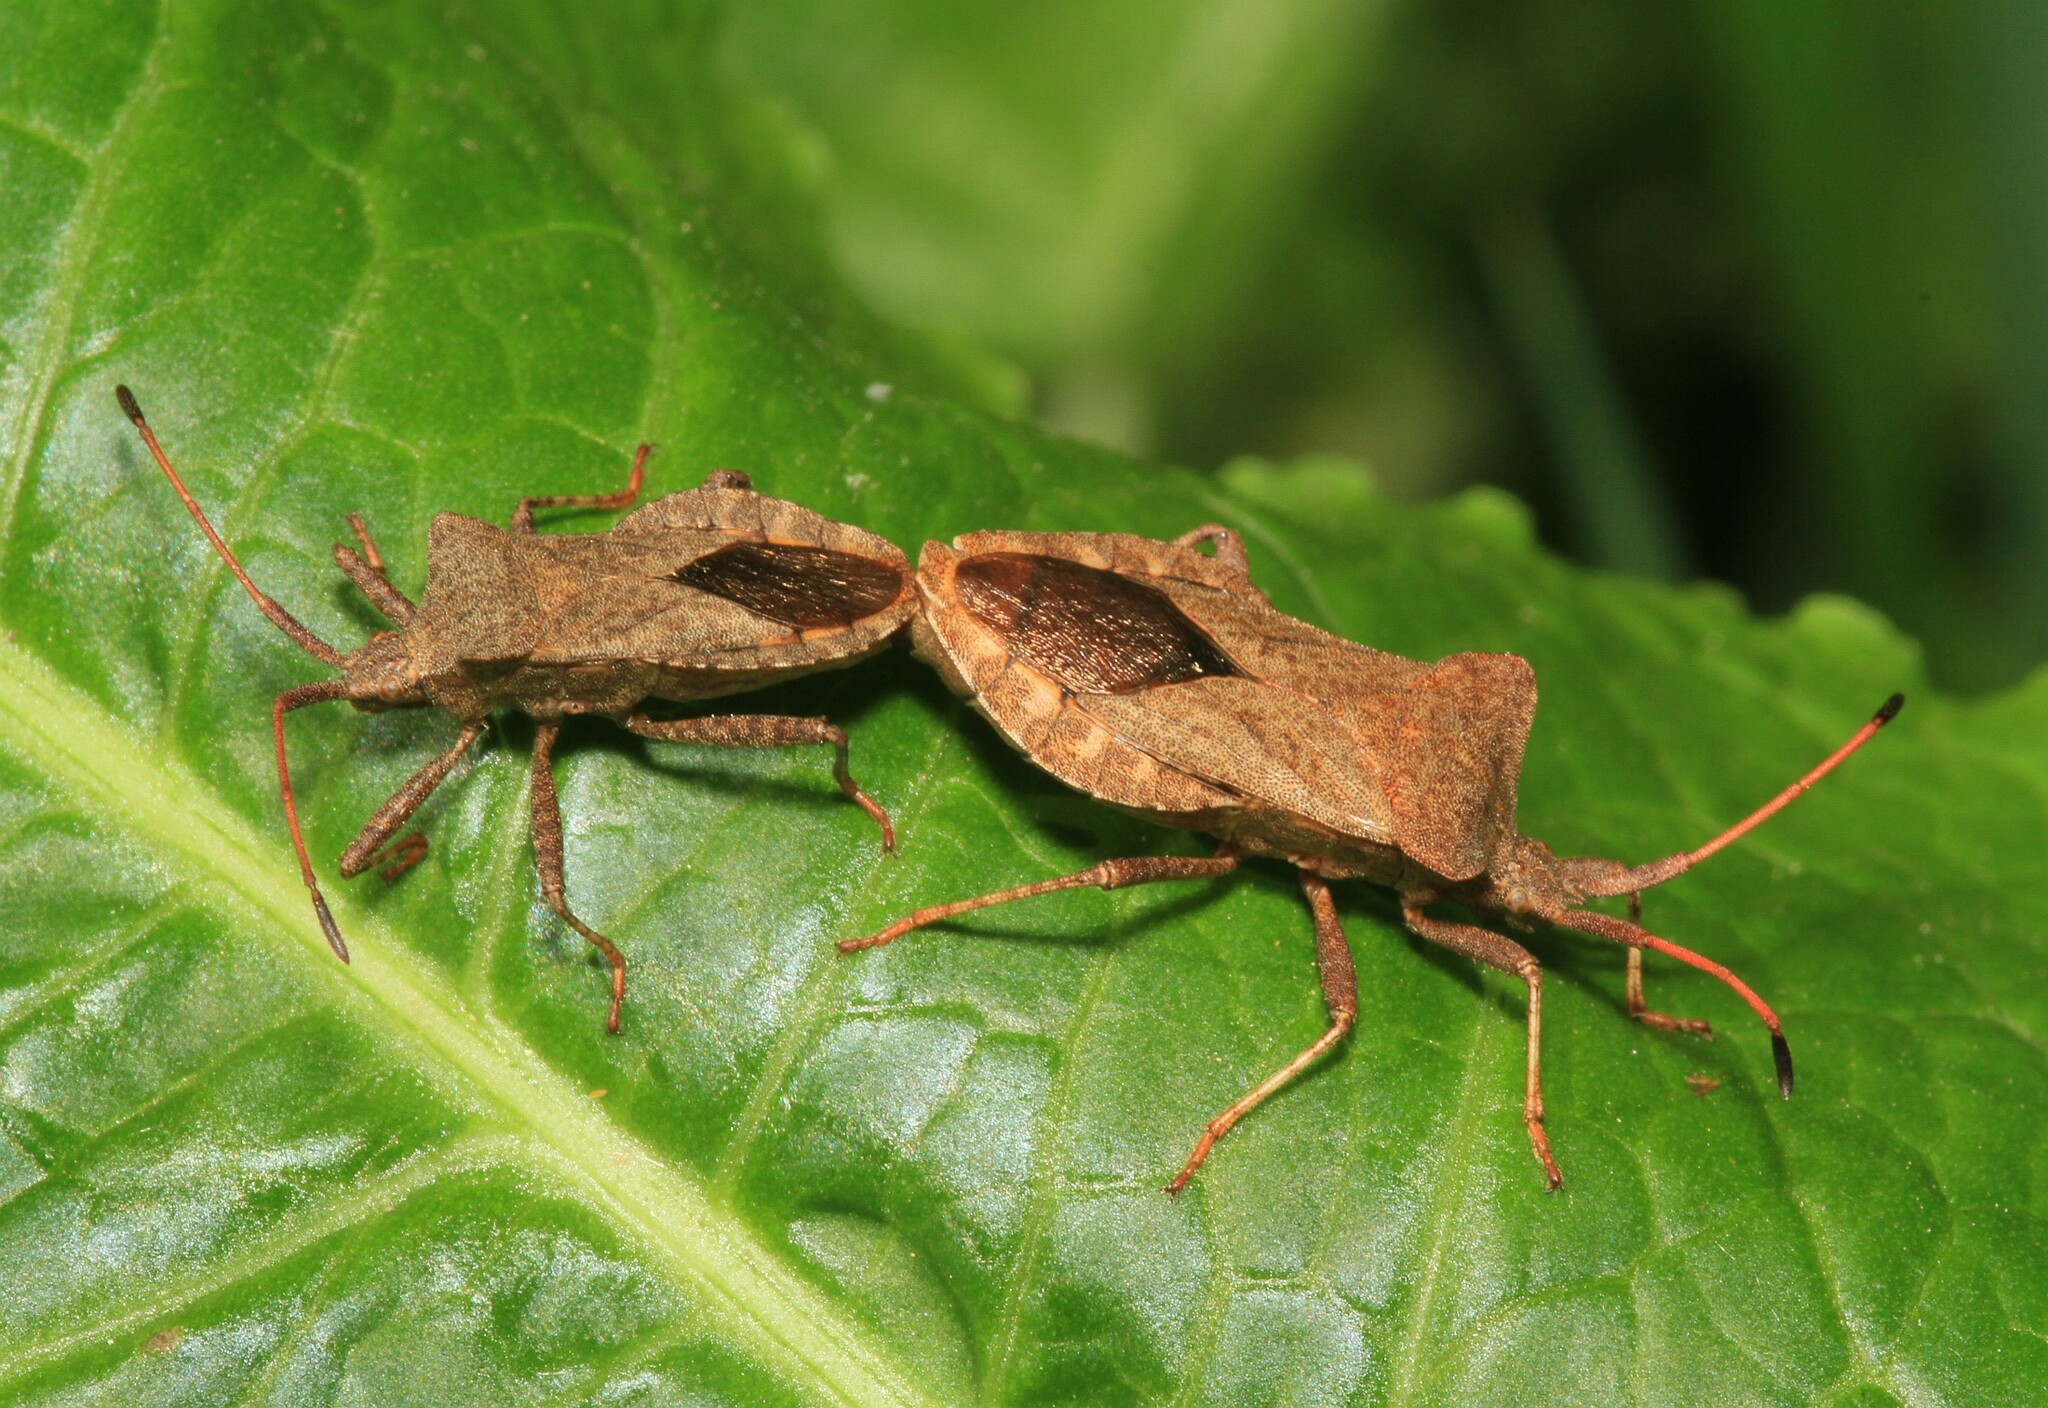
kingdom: Animalia
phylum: Arthropoda
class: Insecta
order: Hemiptera
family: Coreidae
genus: Coreus
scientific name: Coreus marginatus
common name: Dock bug
